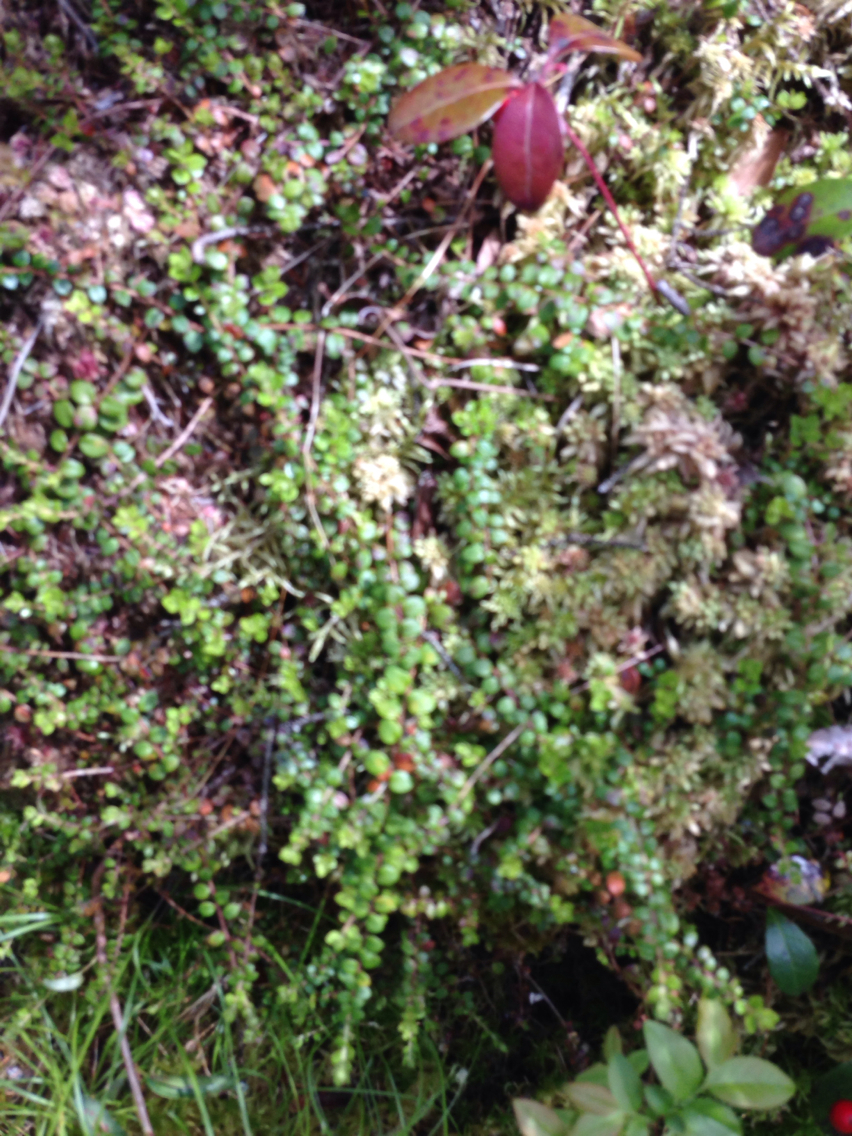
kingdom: Plantae
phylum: Tracheophyta
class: Magnoliopsida
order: Ericales
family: Ericaceae
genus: Gaultheria
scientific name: Gaultheria hispidula
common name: Cancer wintergreen
